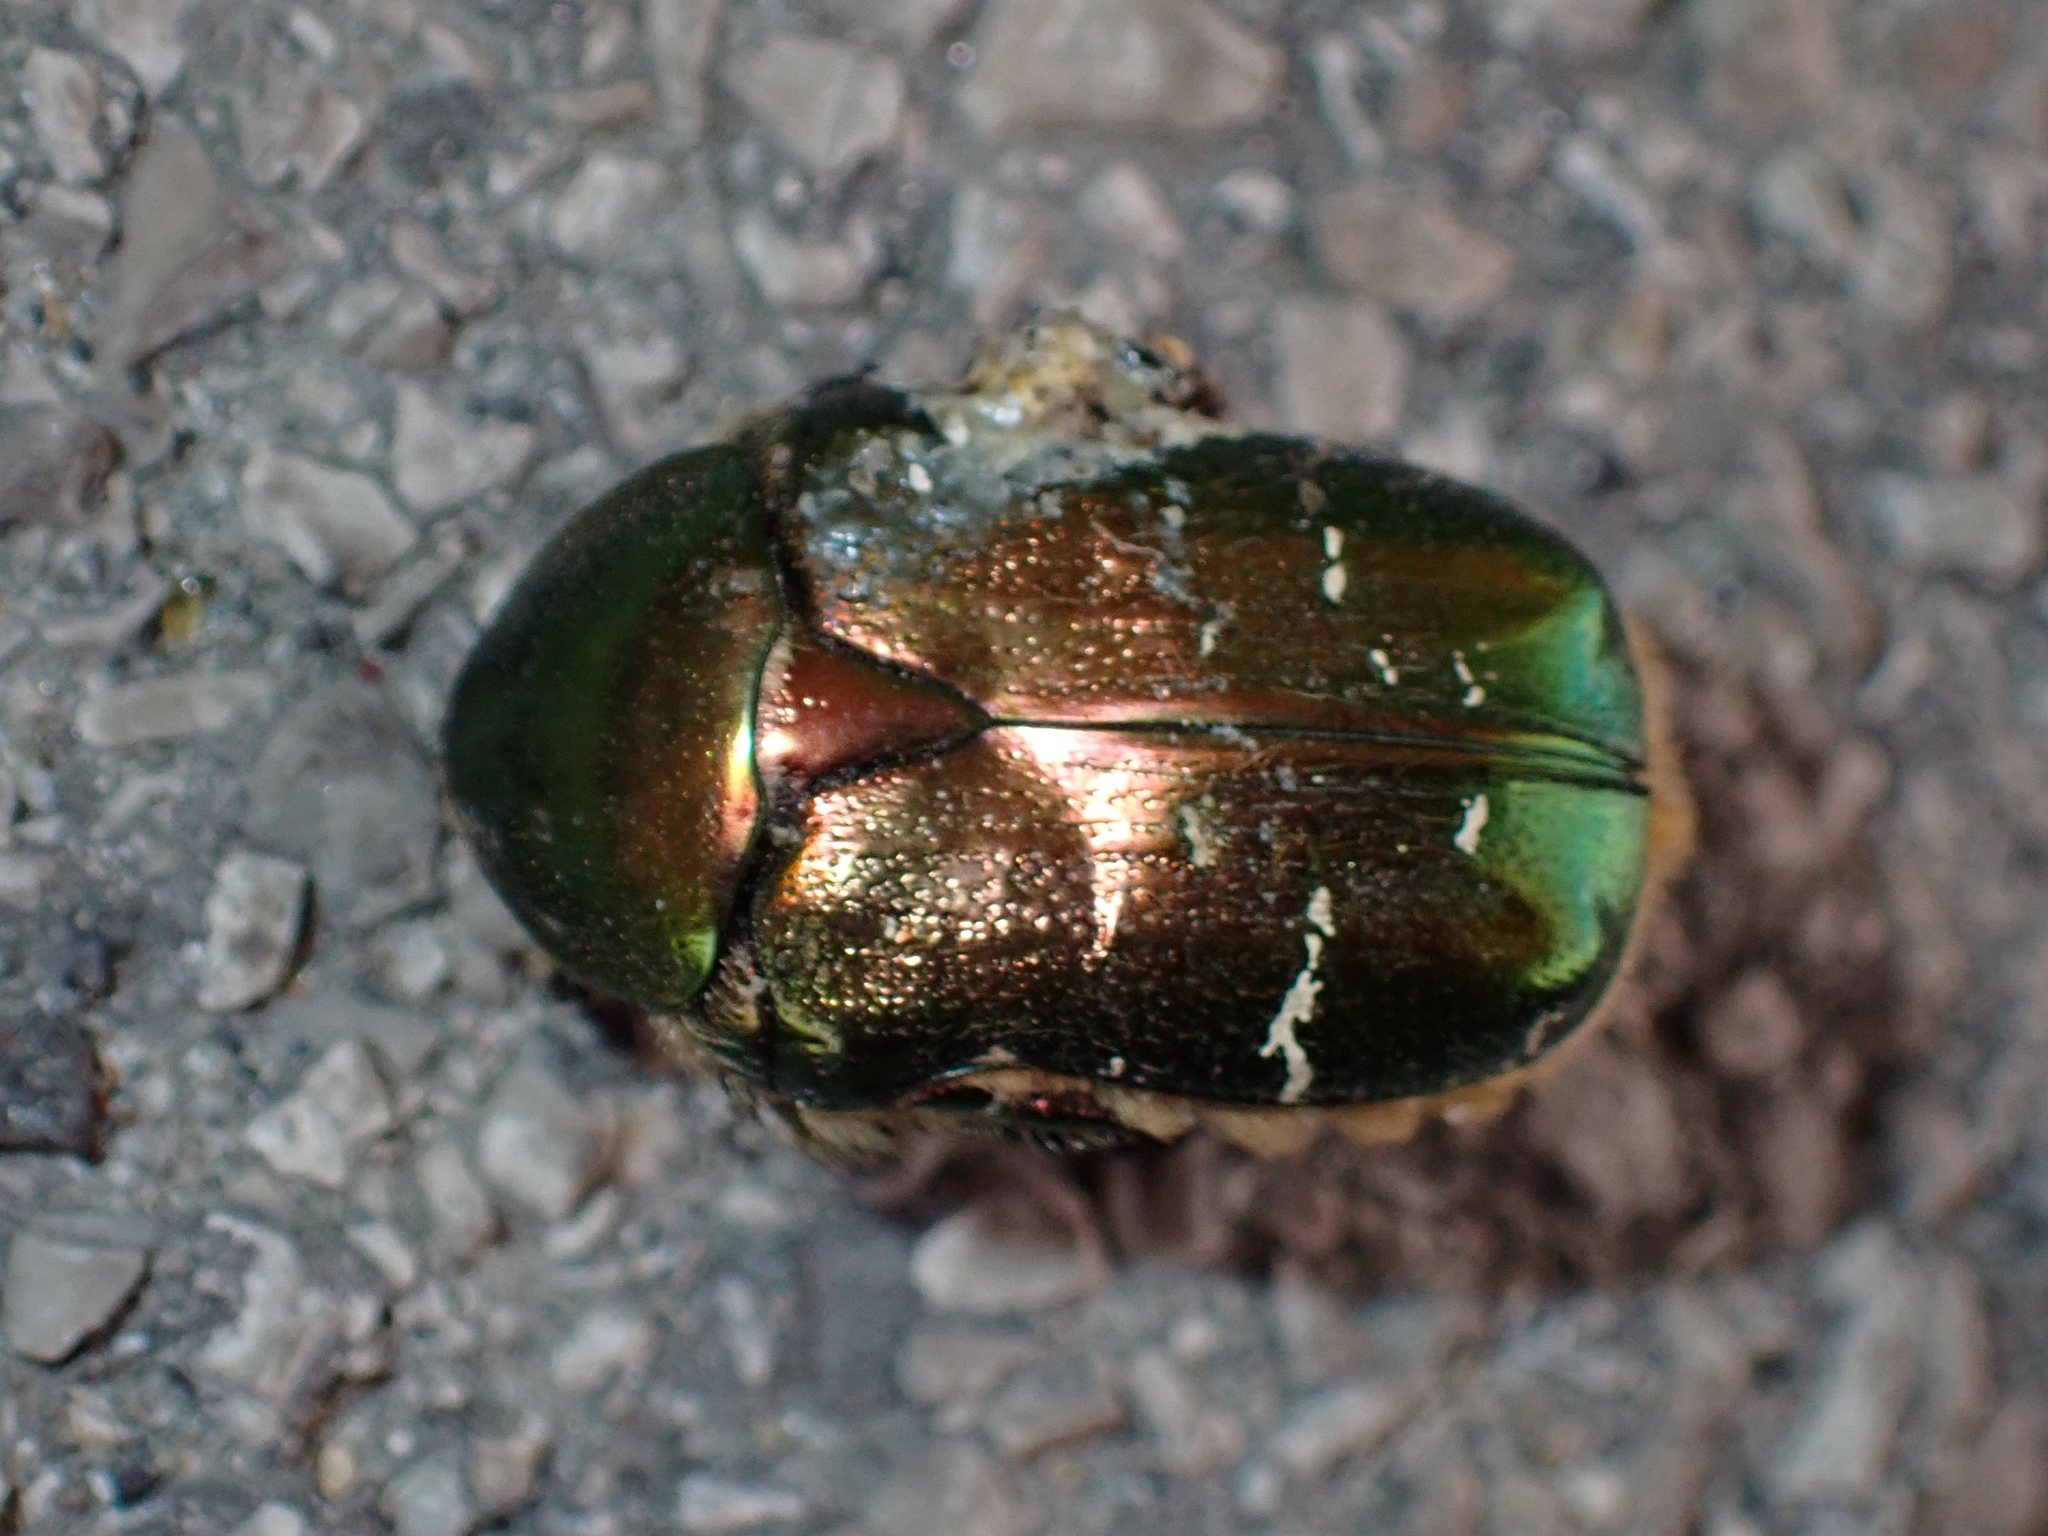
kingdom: Animalia
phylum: Arthropoda
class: Insecta
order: Coleoptera
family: Scarabaeidae
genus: Cetonia
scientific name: Cetonia aurata
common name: Rose chafer
